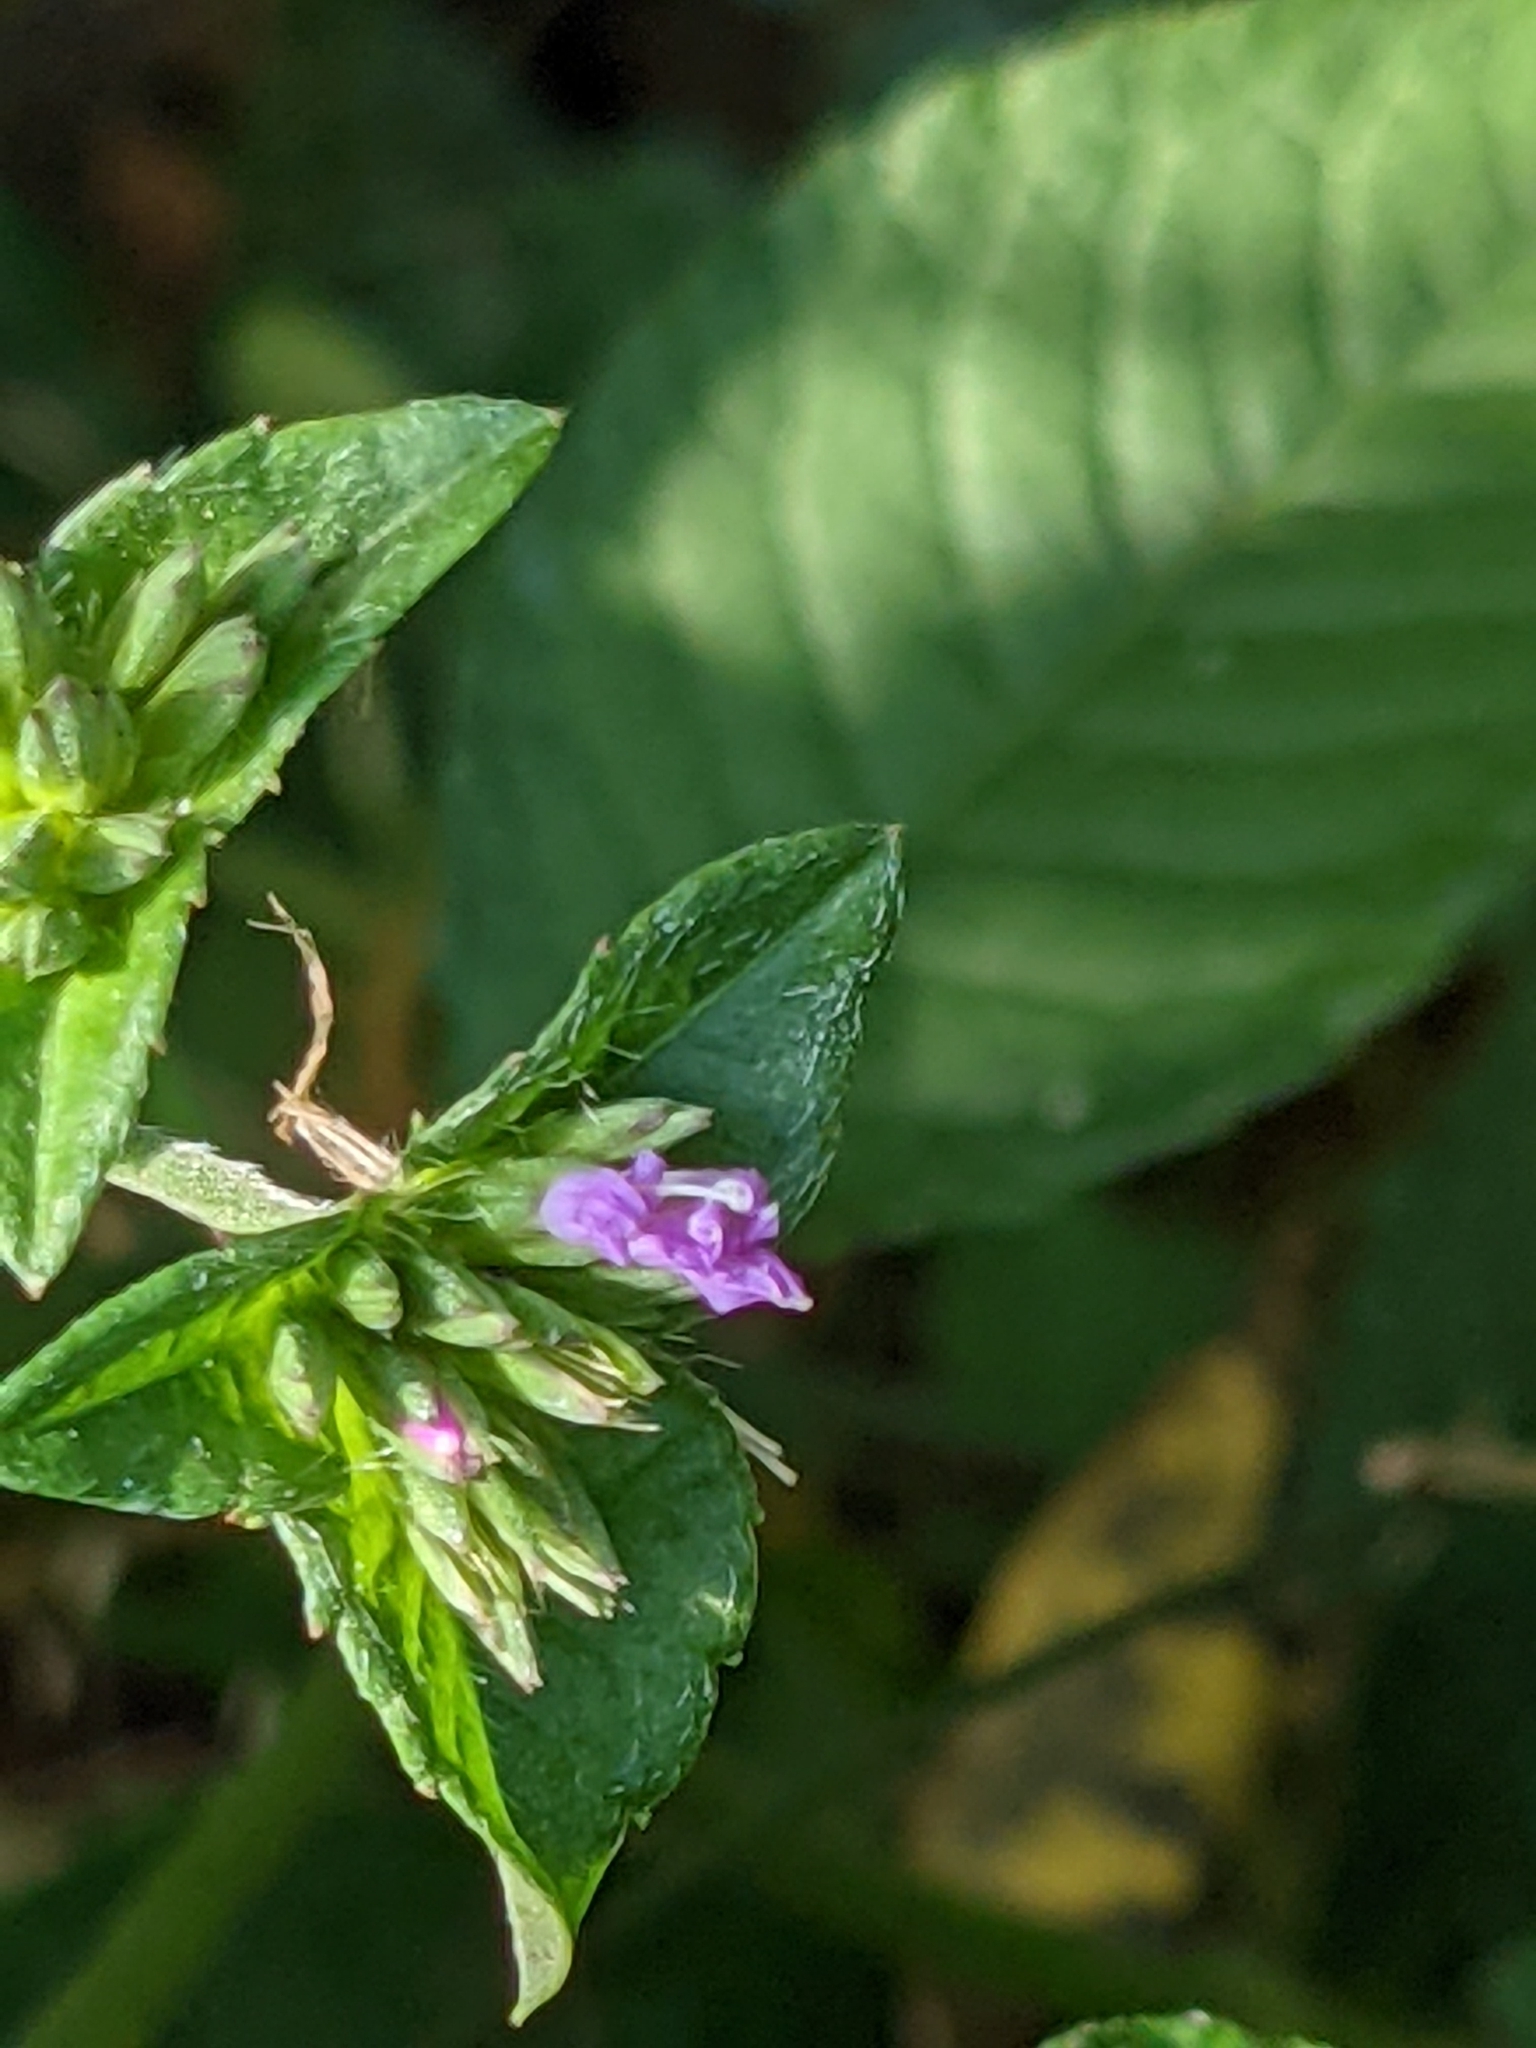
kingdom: Plantae
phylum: Tracheophyta
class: Magnoliopsida
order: Asterales
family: Asteraceae
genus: Elephantopus
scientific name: Elephantopus carolinianus
